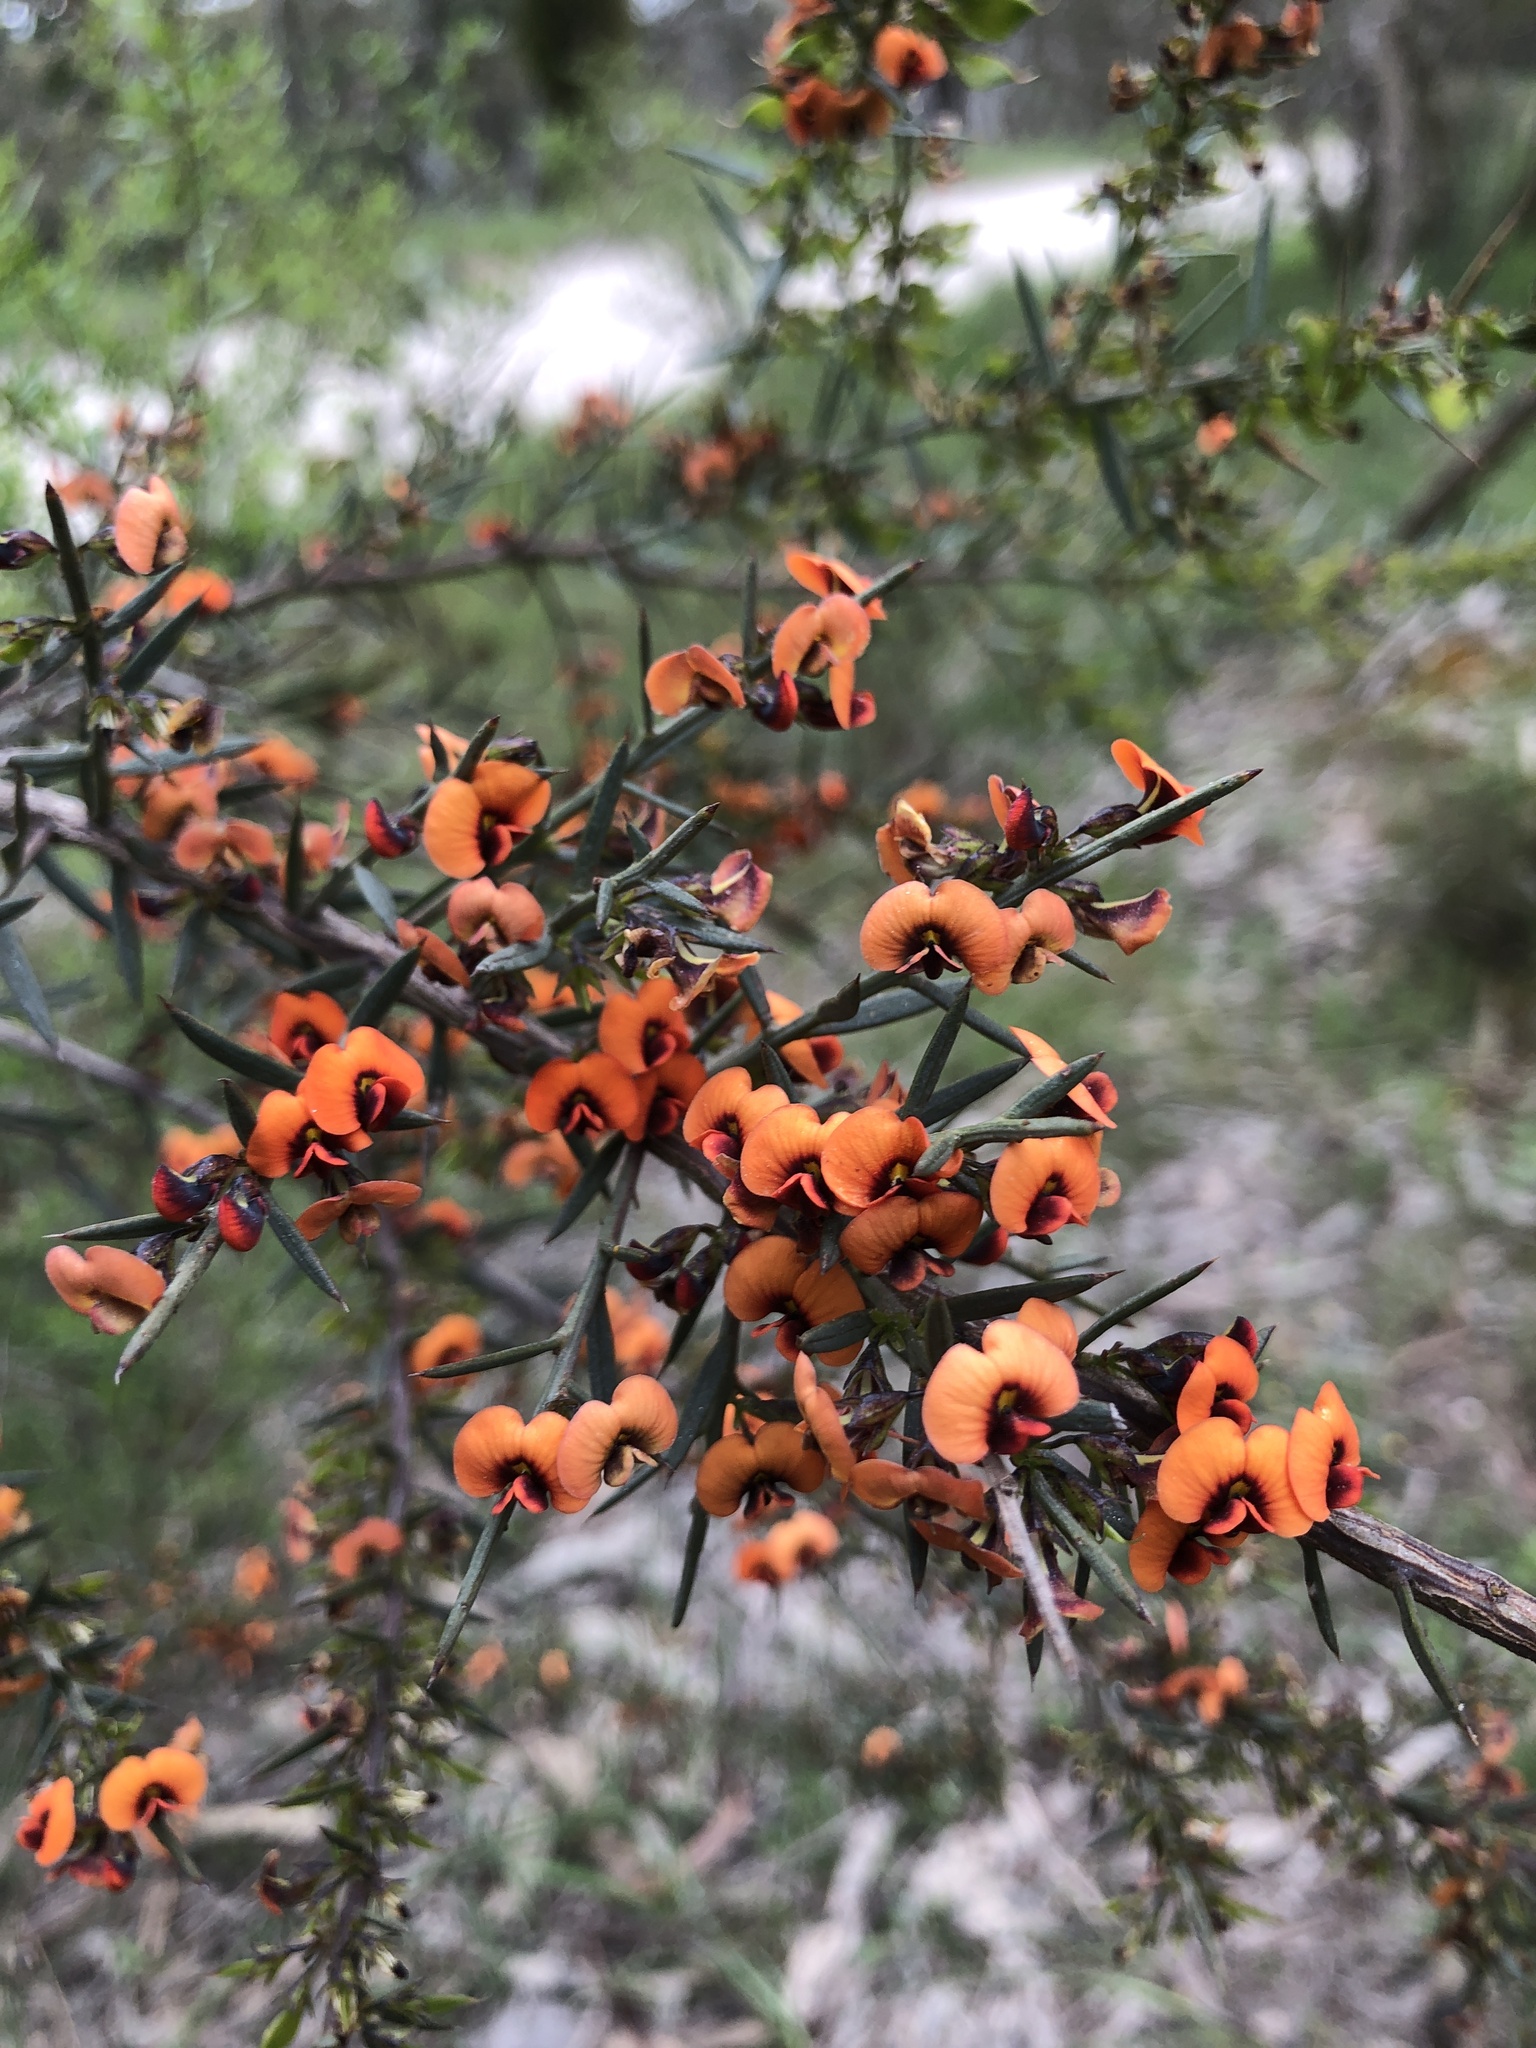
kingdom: Plantae
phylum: Tracheophyta
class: Magnoliopsida
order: Fabales
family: Fabaceae
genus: Daviesia
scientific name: Daviesia ulicifolia
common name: Gorse bitter-pea
